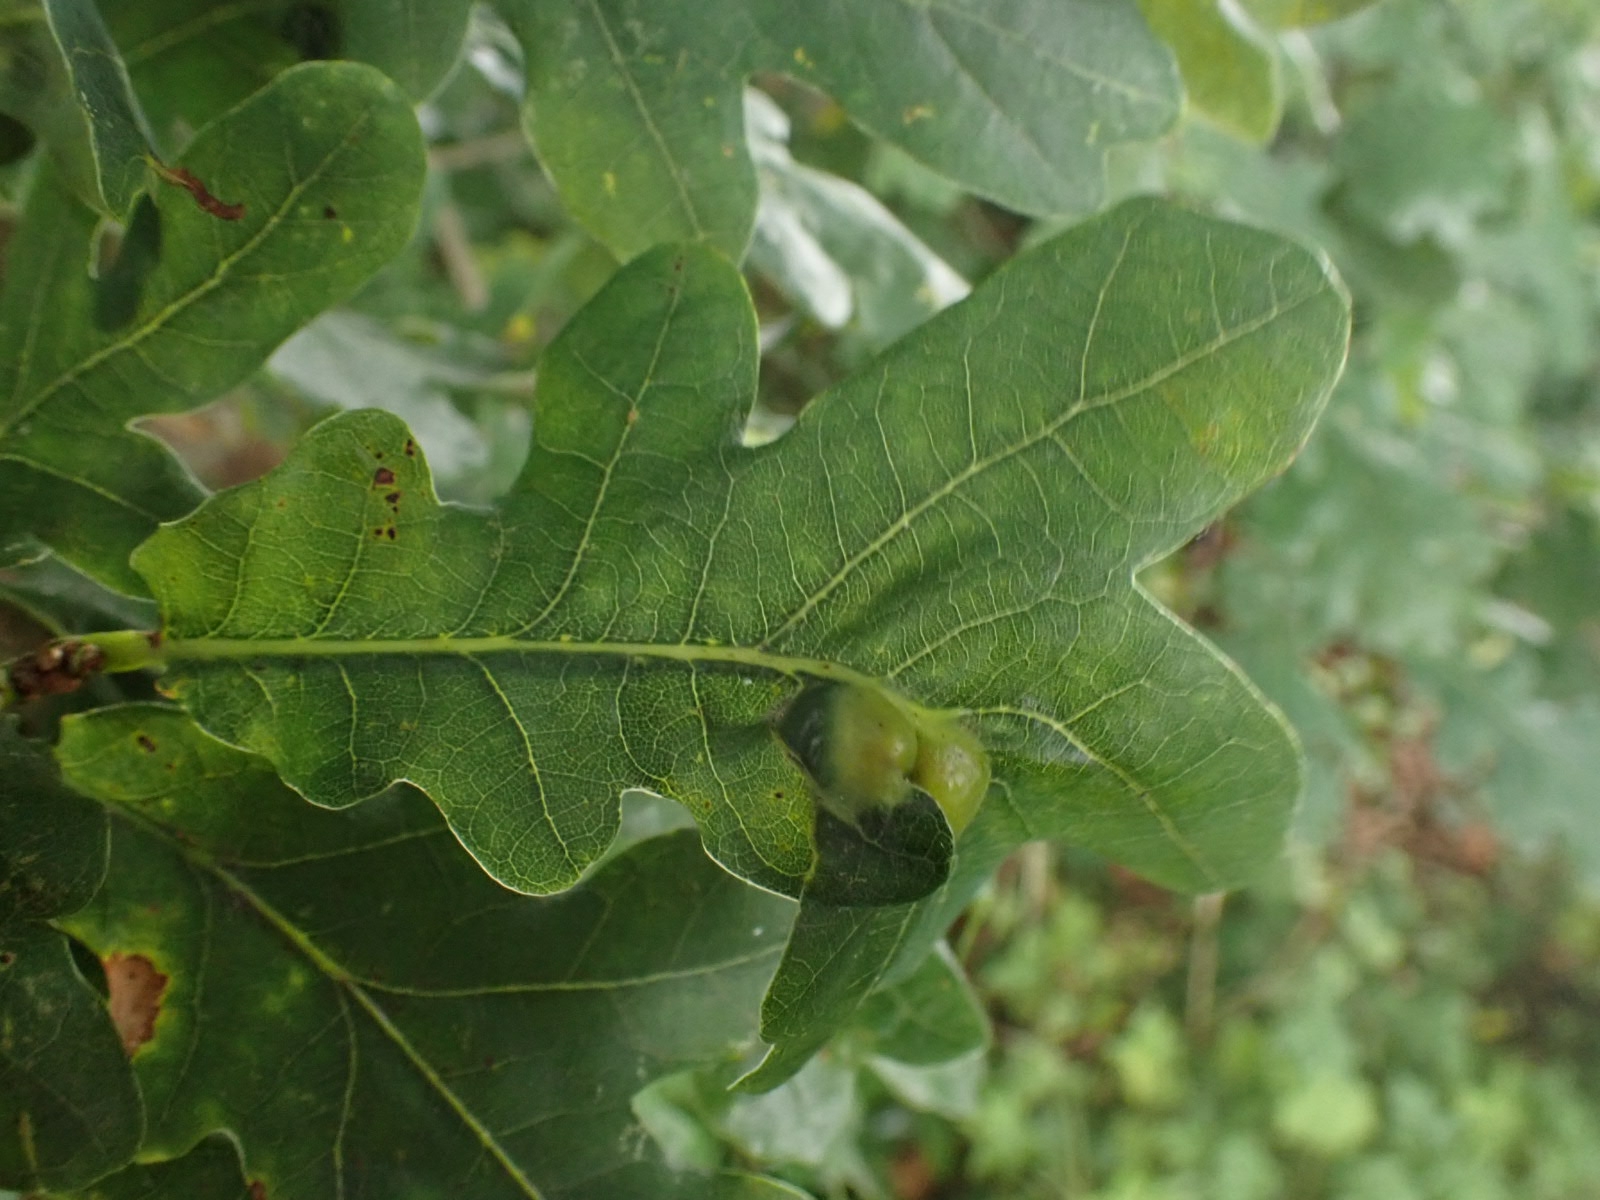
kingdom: Animalia
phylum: Arthropoda
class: Insecta
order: Hymenoptera
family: Cynipidae
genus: Andricus
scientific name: Andricus curvator
